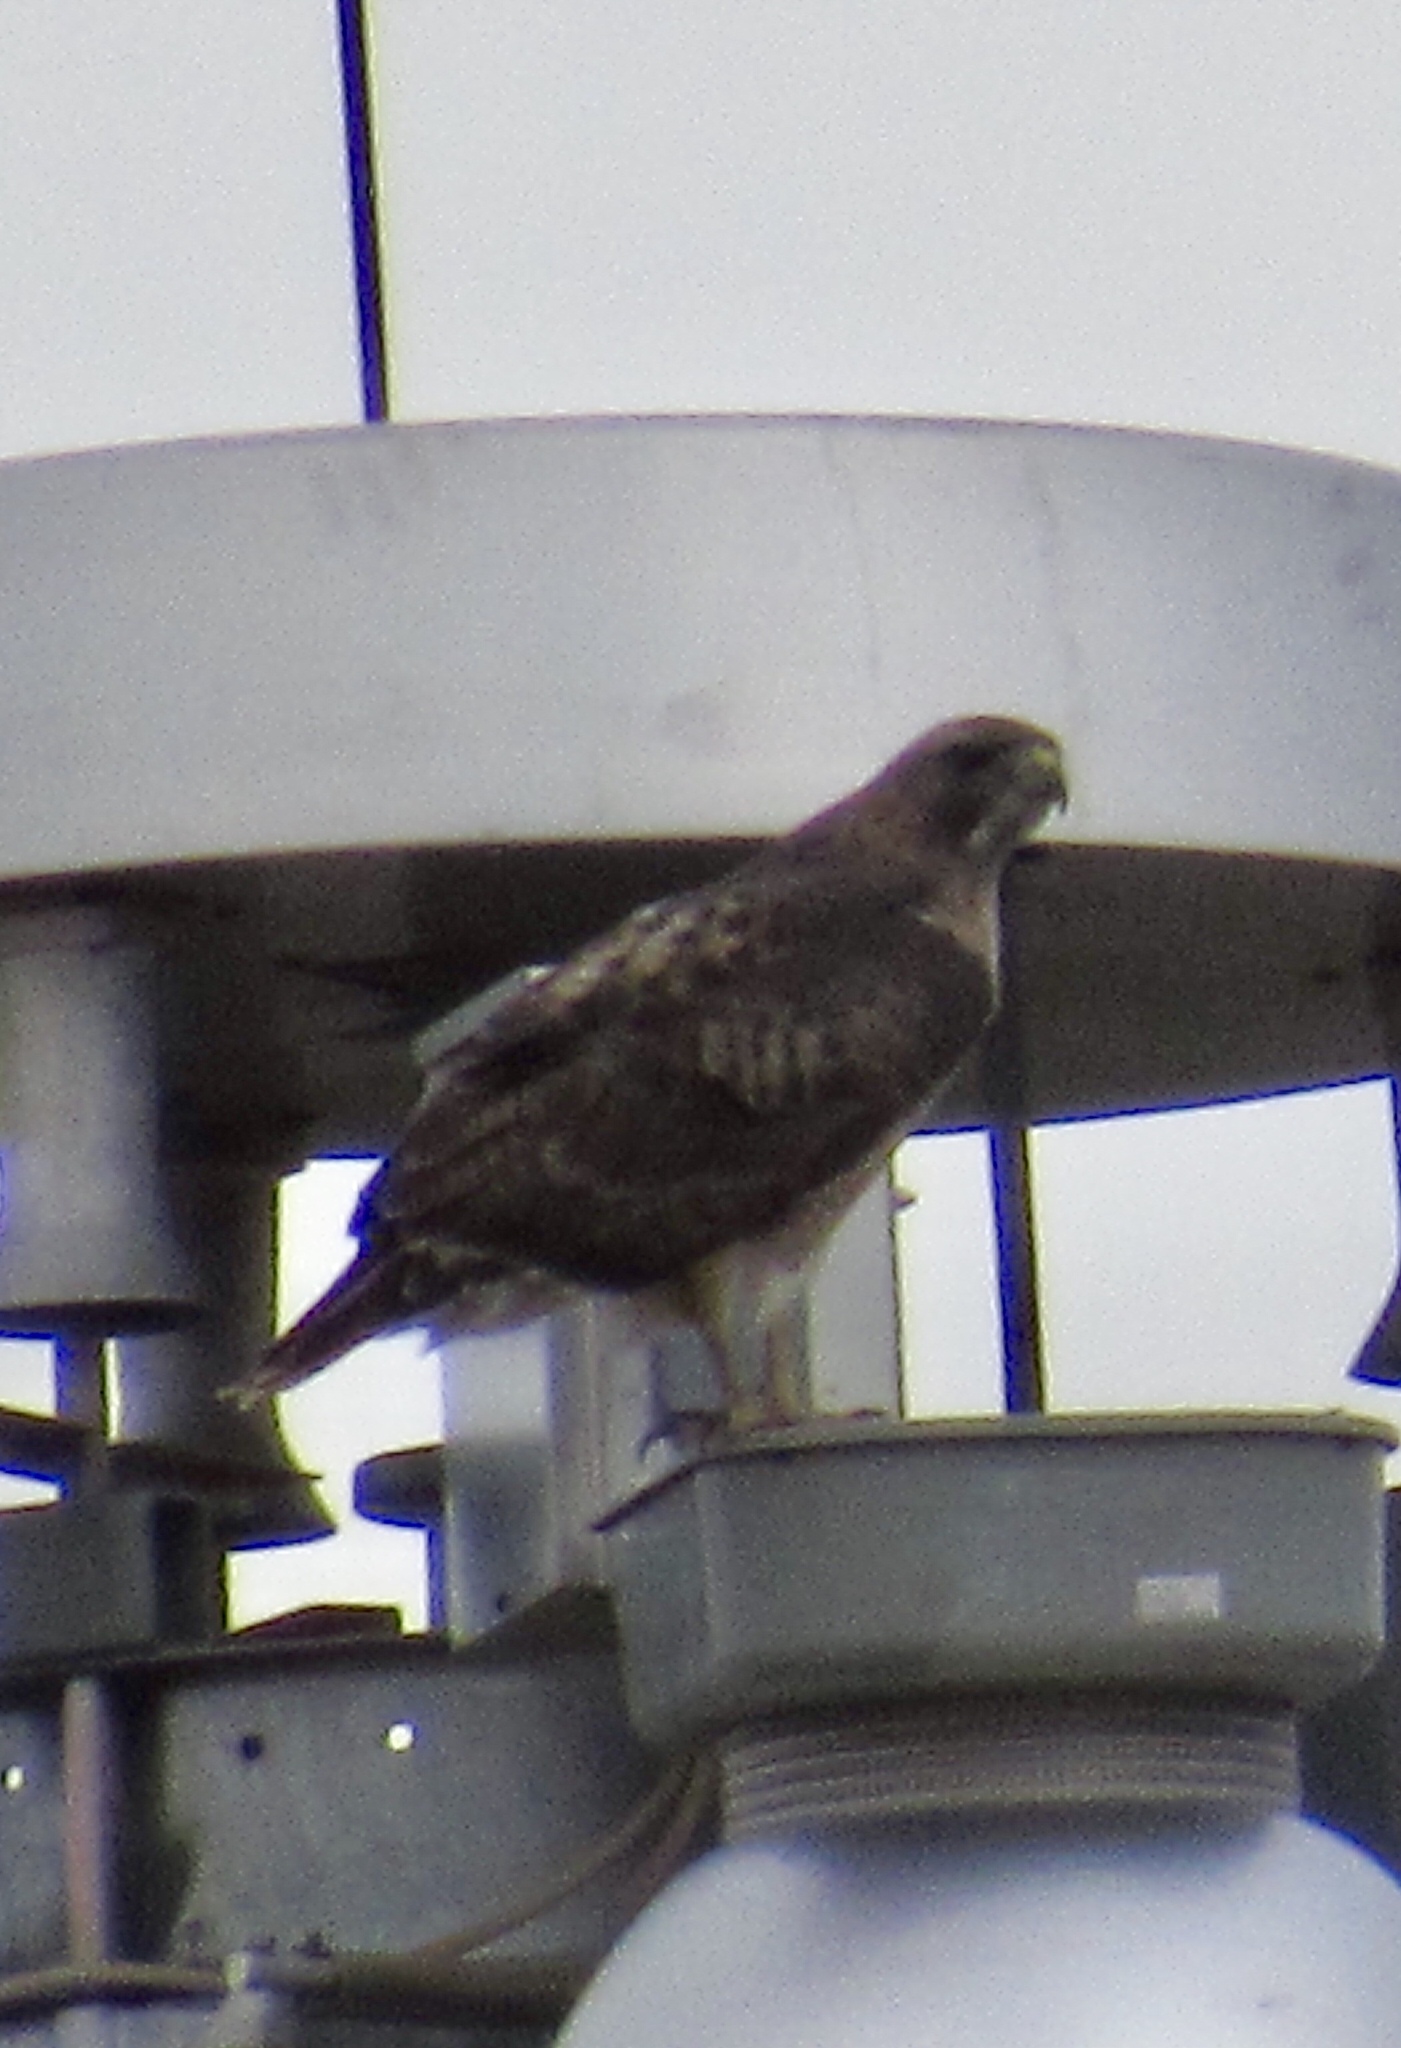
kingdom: Animalia
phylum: Chordata
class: Aves
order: Accipitriformes
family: Accipitridae
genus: Buteo
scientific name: Buteo jamaicensis
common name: Red-tailed hawk
